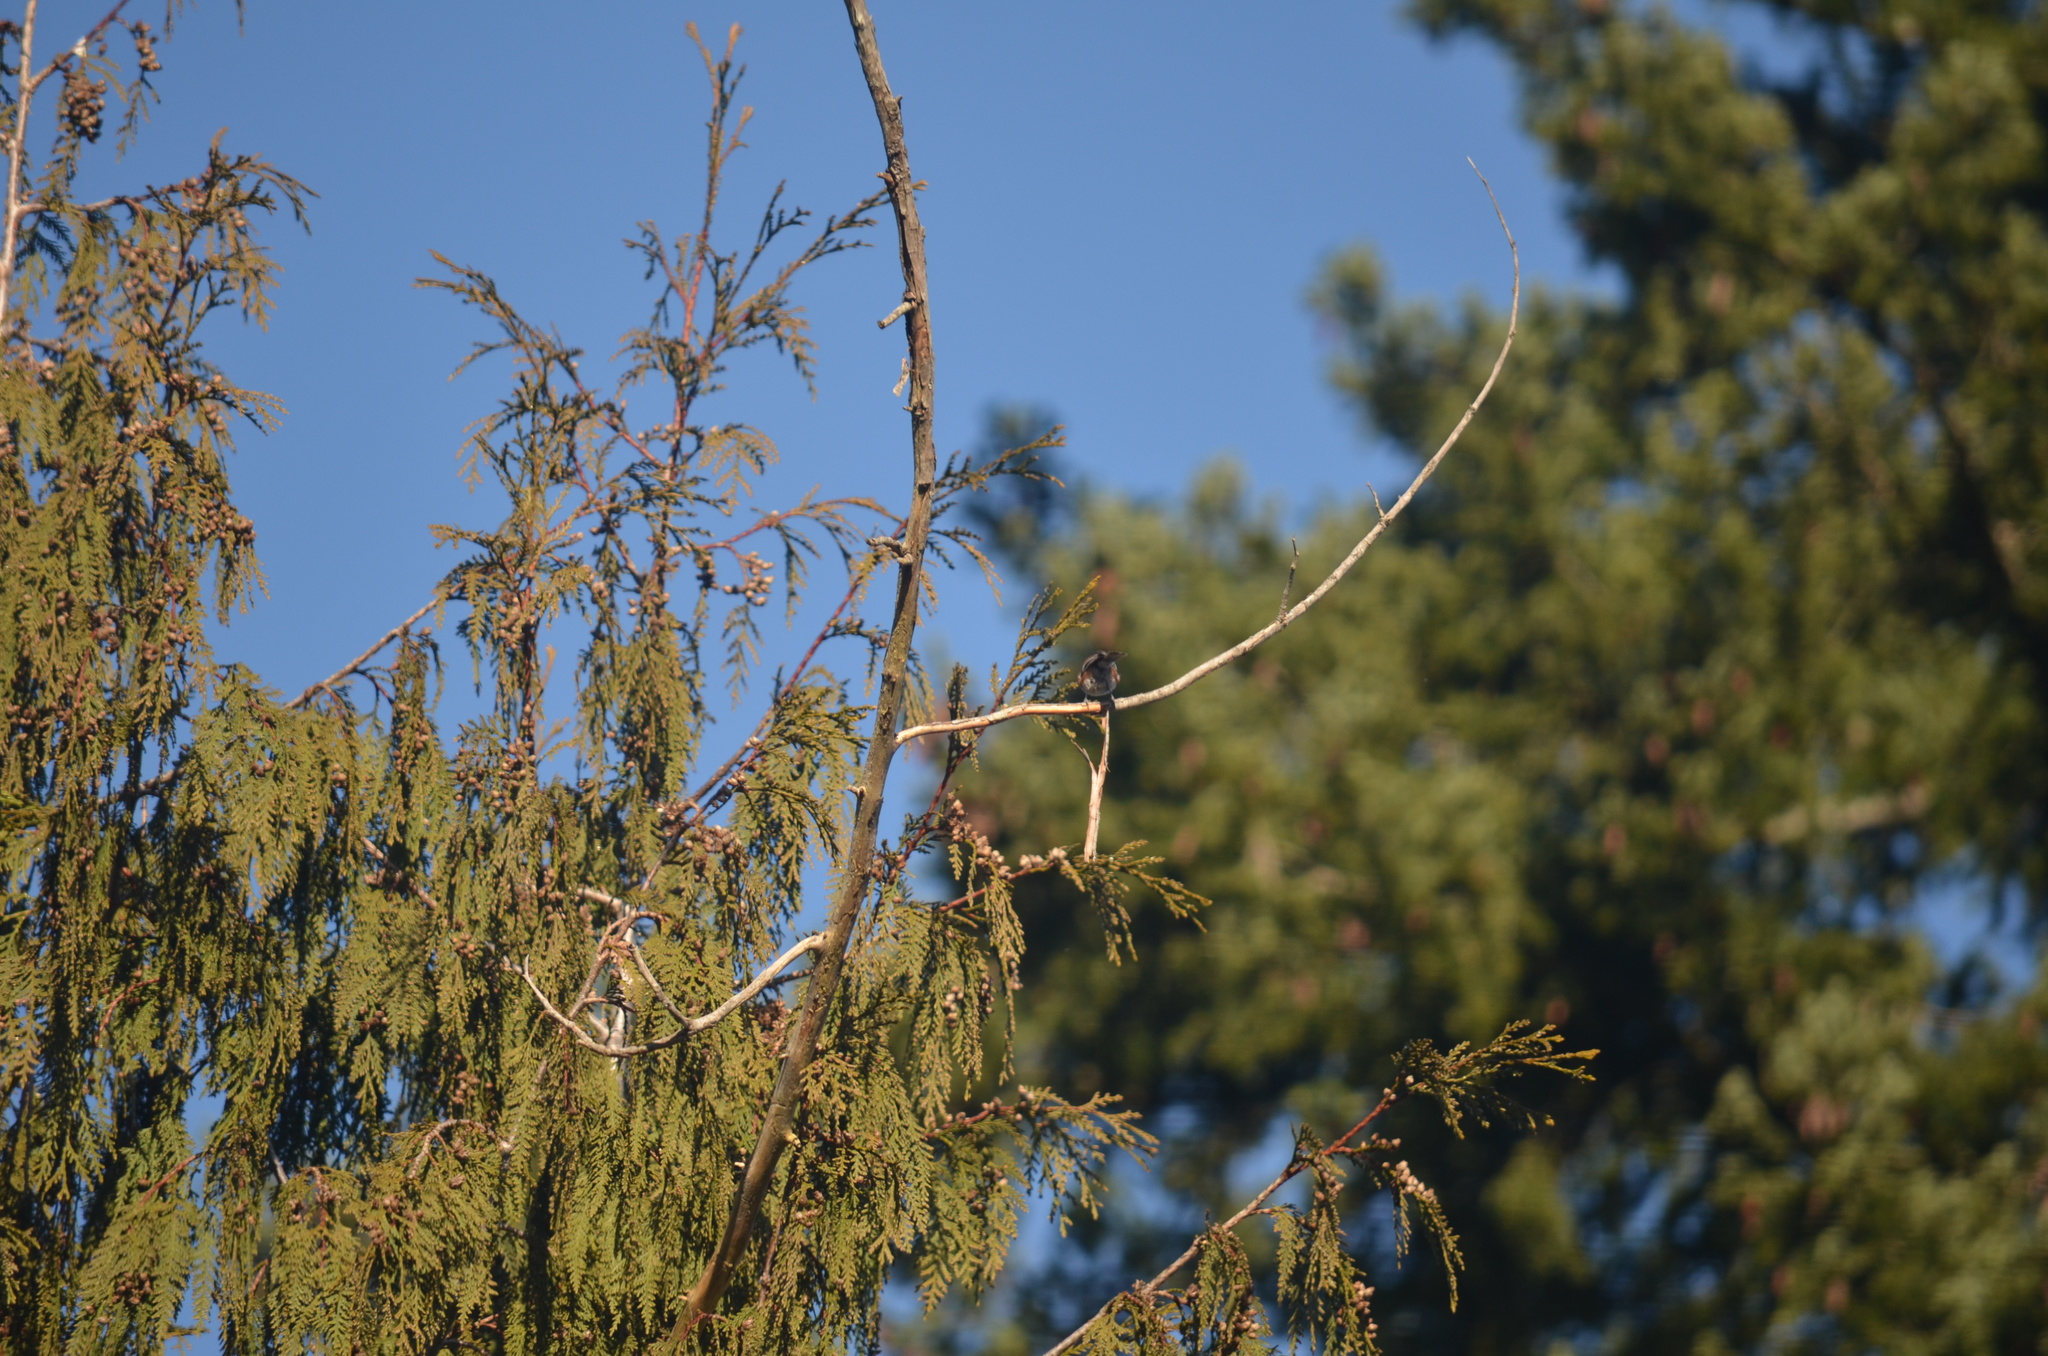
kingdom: Animalia
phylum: Chordata
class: Aves
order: Passeriformes
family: Paridae
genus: Poecile
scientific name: Poecile rufescens
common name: Chestnut-backed chickadee
